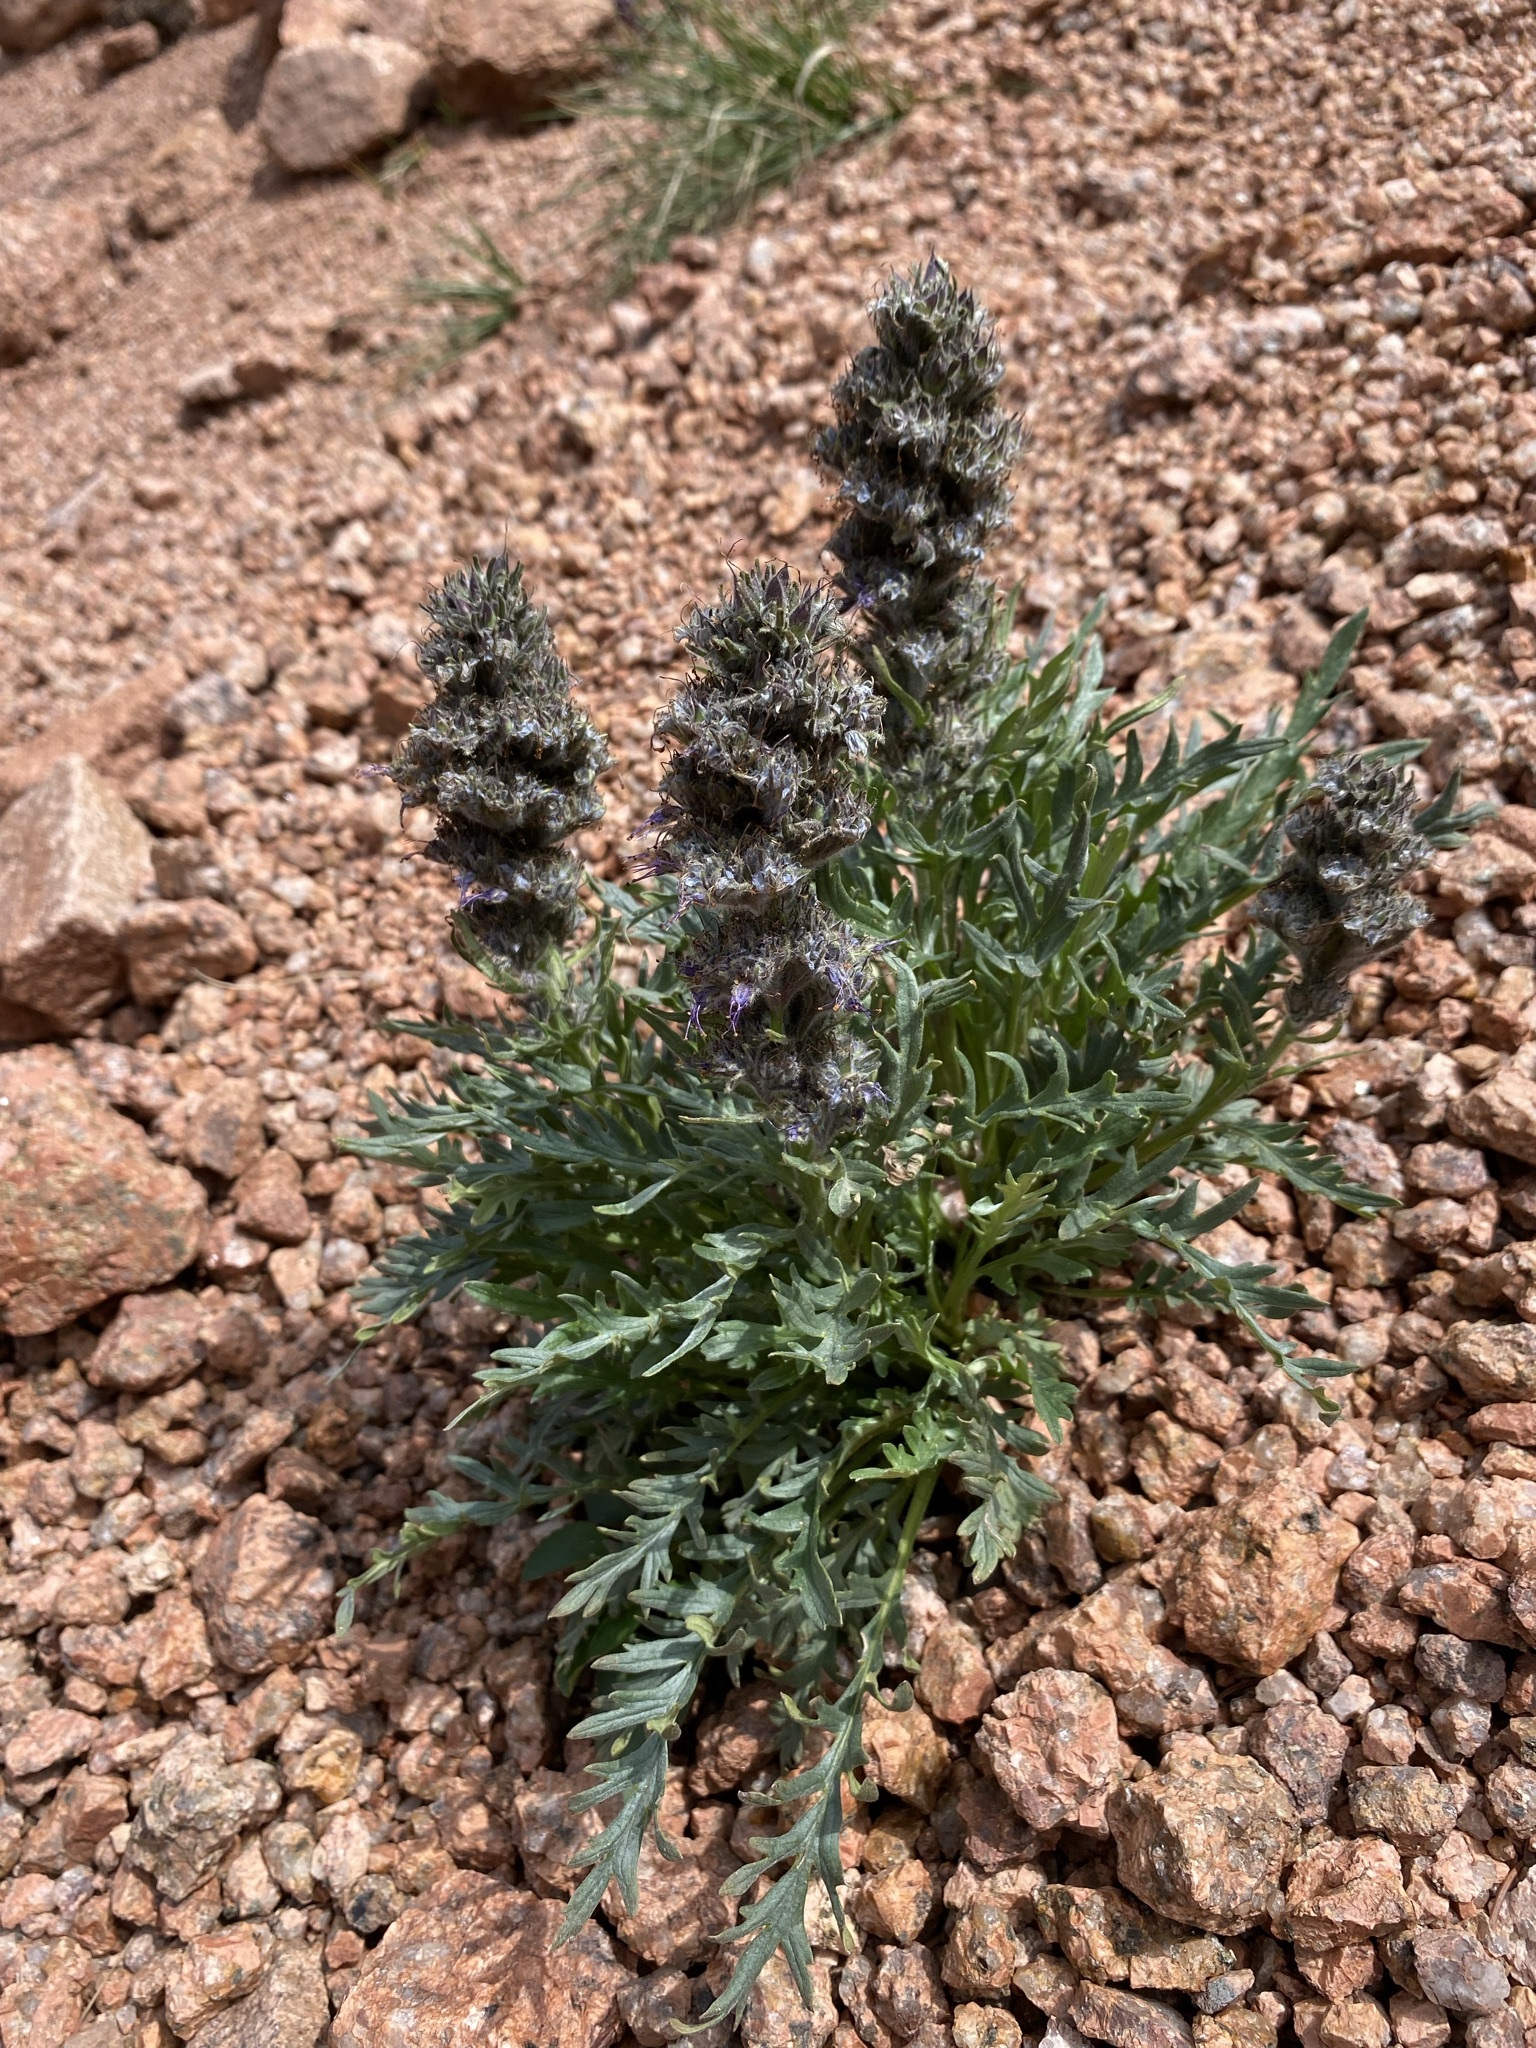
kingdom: Plantae
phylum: Tracheophyta
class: Magnoliopsida
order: Boraginales
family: Hydrophyllaceae
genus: Phacelia
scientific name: Phacelia sericea
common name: Silky phacelia
